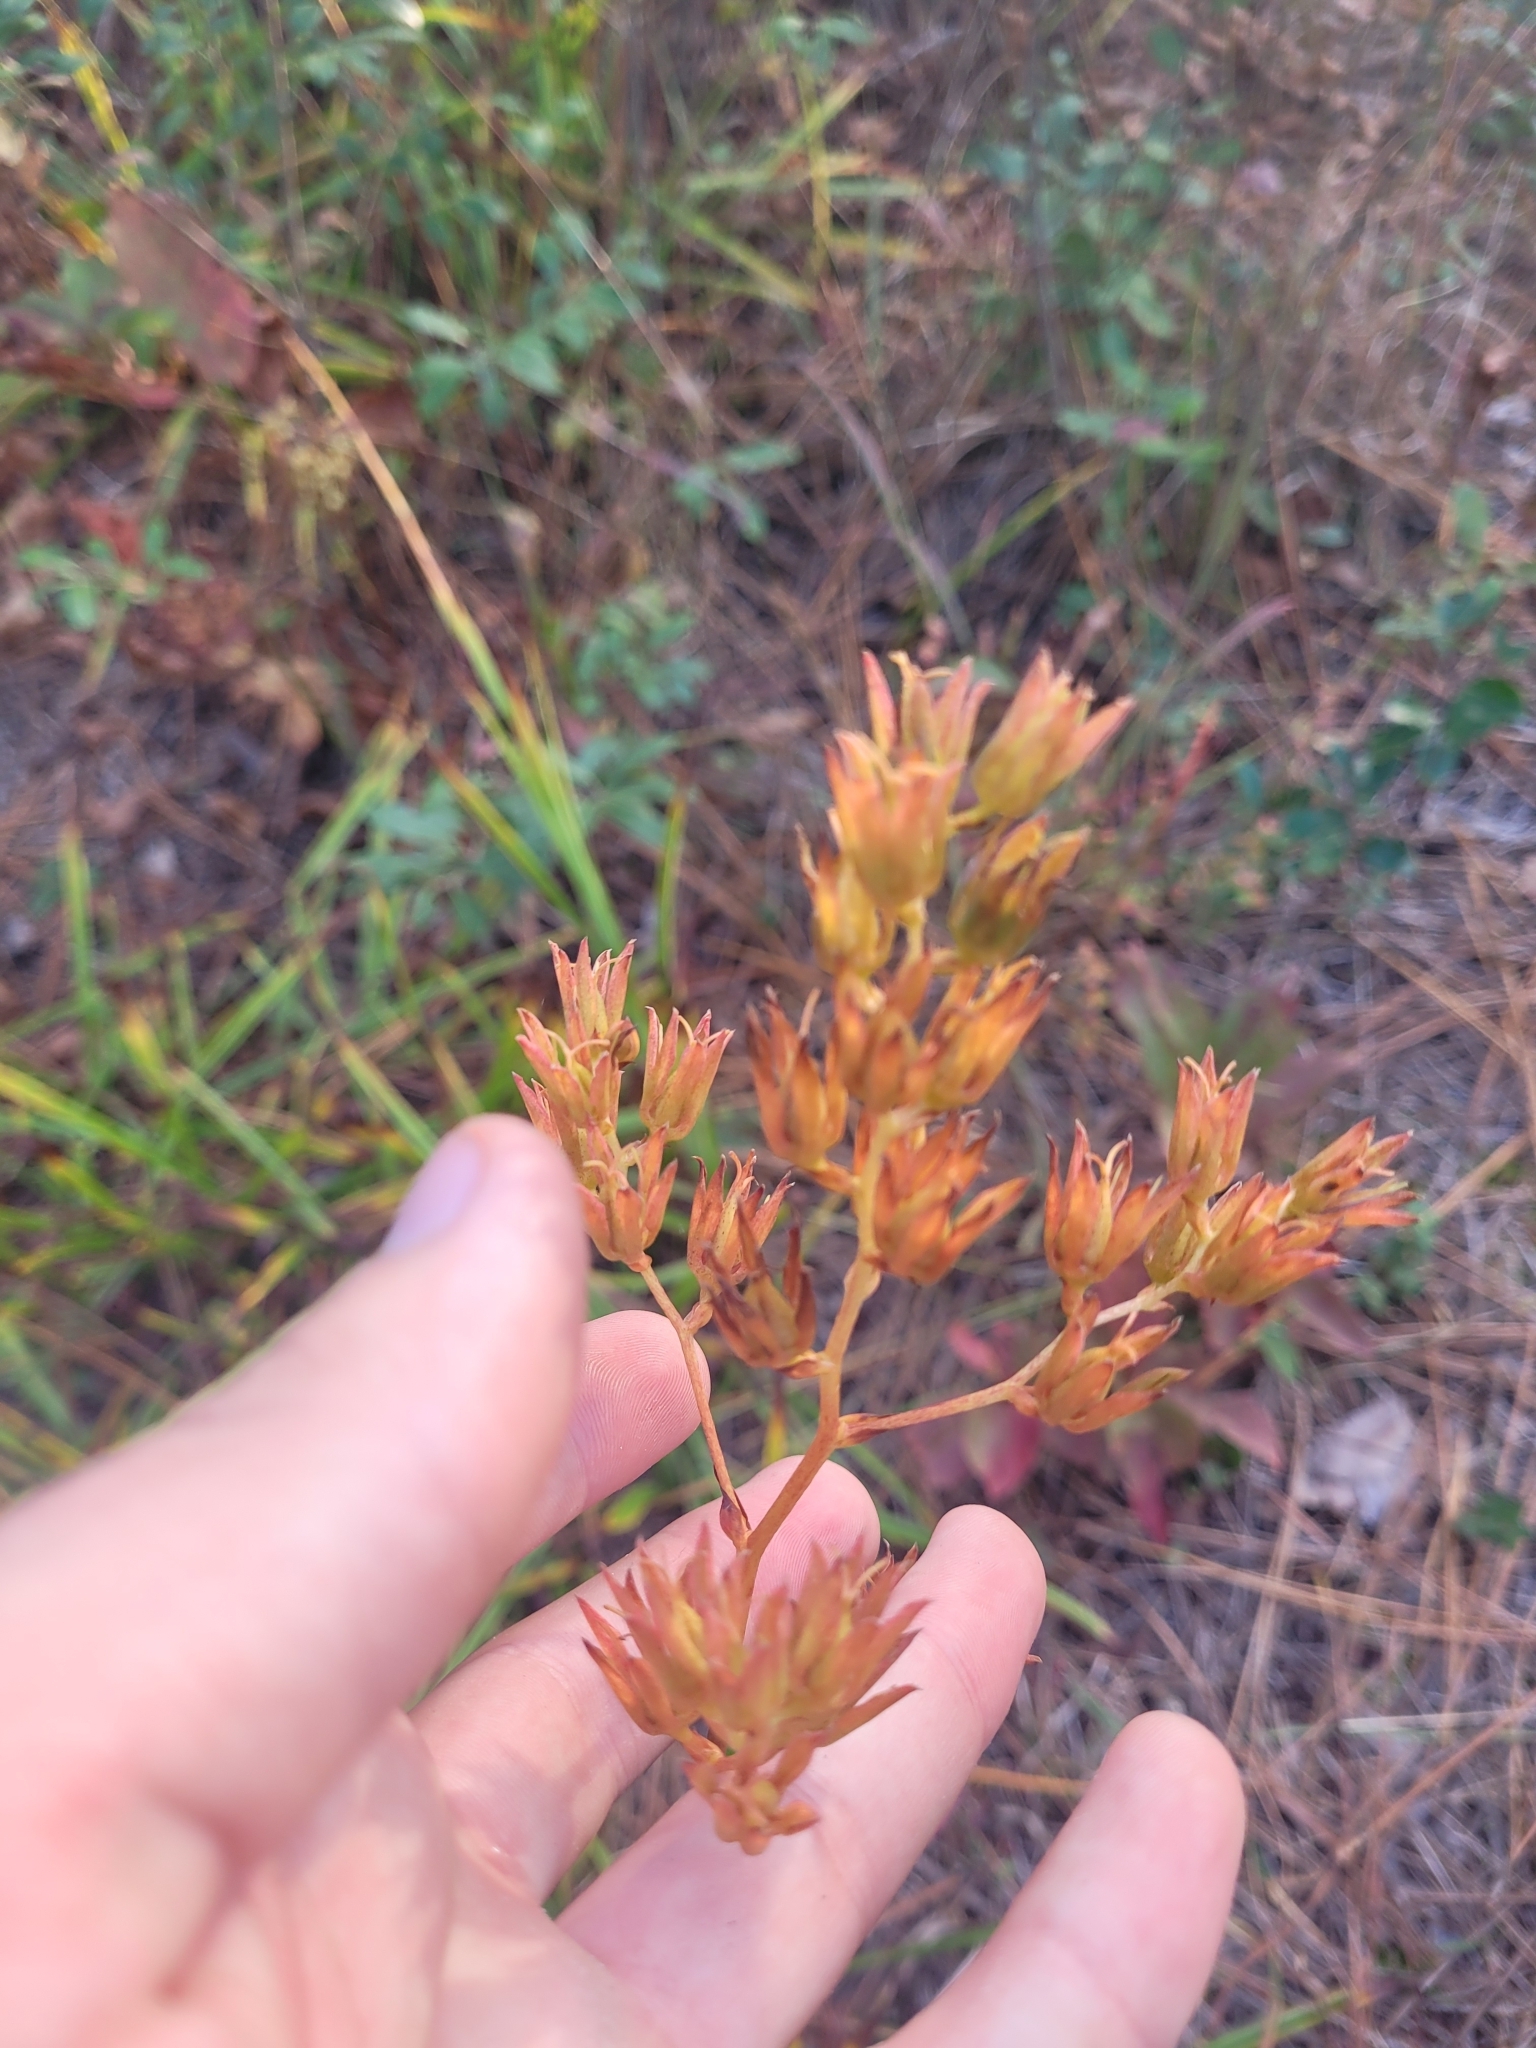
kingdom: Plantae
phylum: Tracheophyta
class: Liliopsida
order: Liliales
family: Melanthiaceae
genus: Zigadenus
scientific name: Zigadenus glaberrimus
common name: Sandbog death camas
